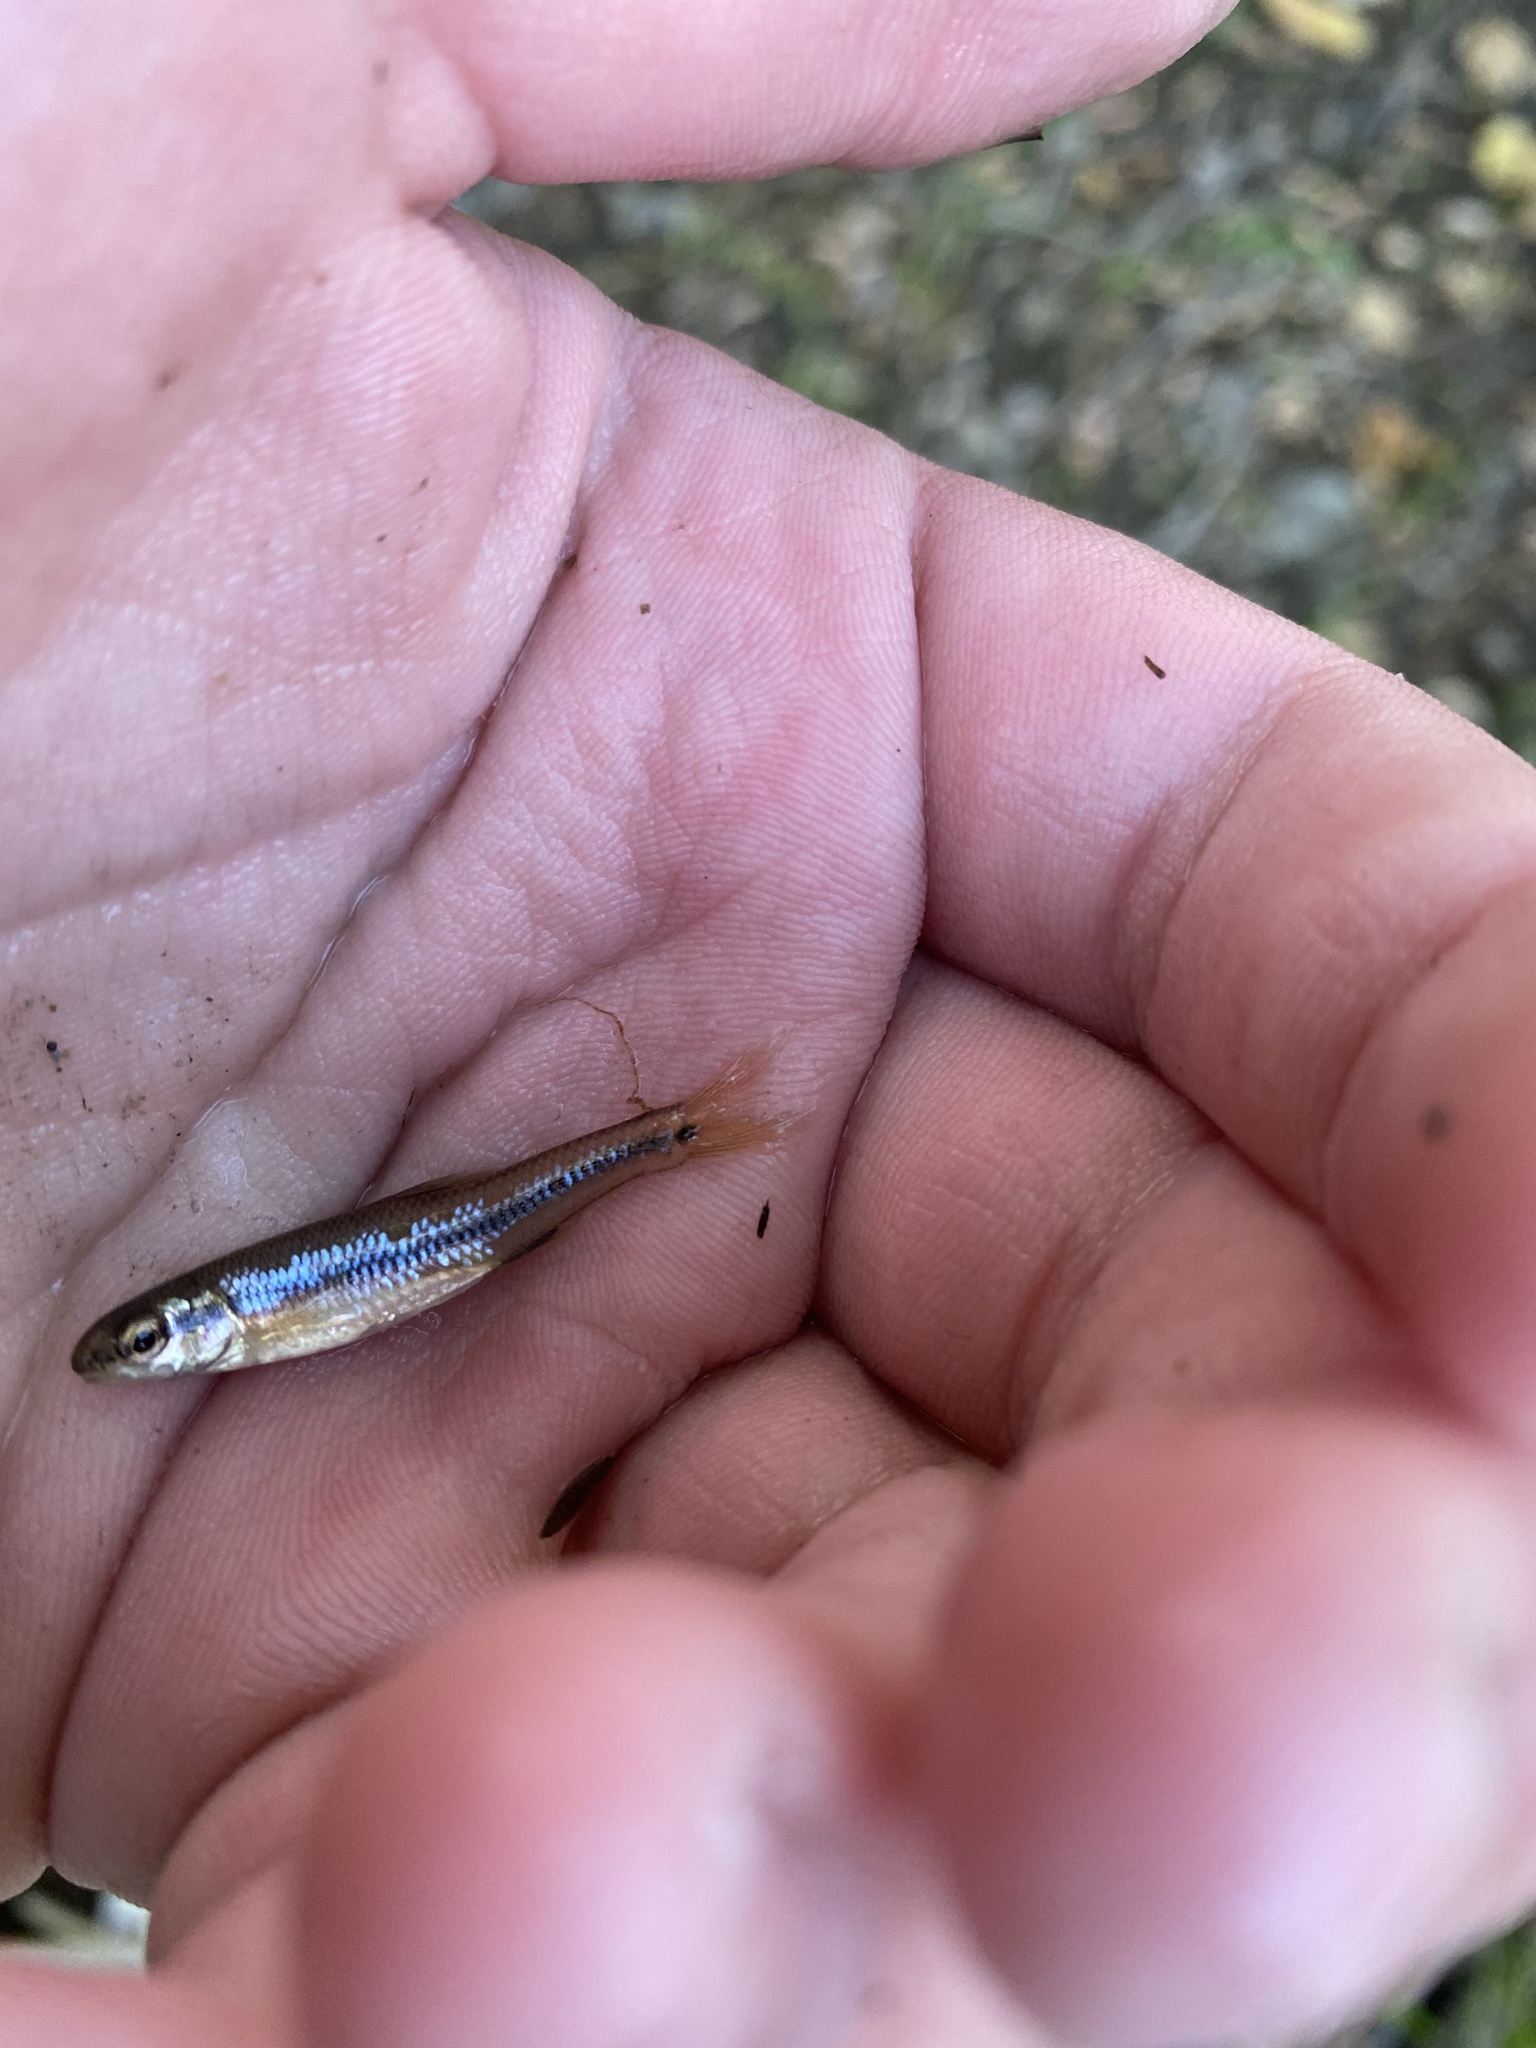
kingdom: Animalia
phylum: Chordata
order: Cypriniformes
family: Cyprinidae
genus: Pimephales
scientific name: Pimephales notatus
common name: Bluntnose minnow
